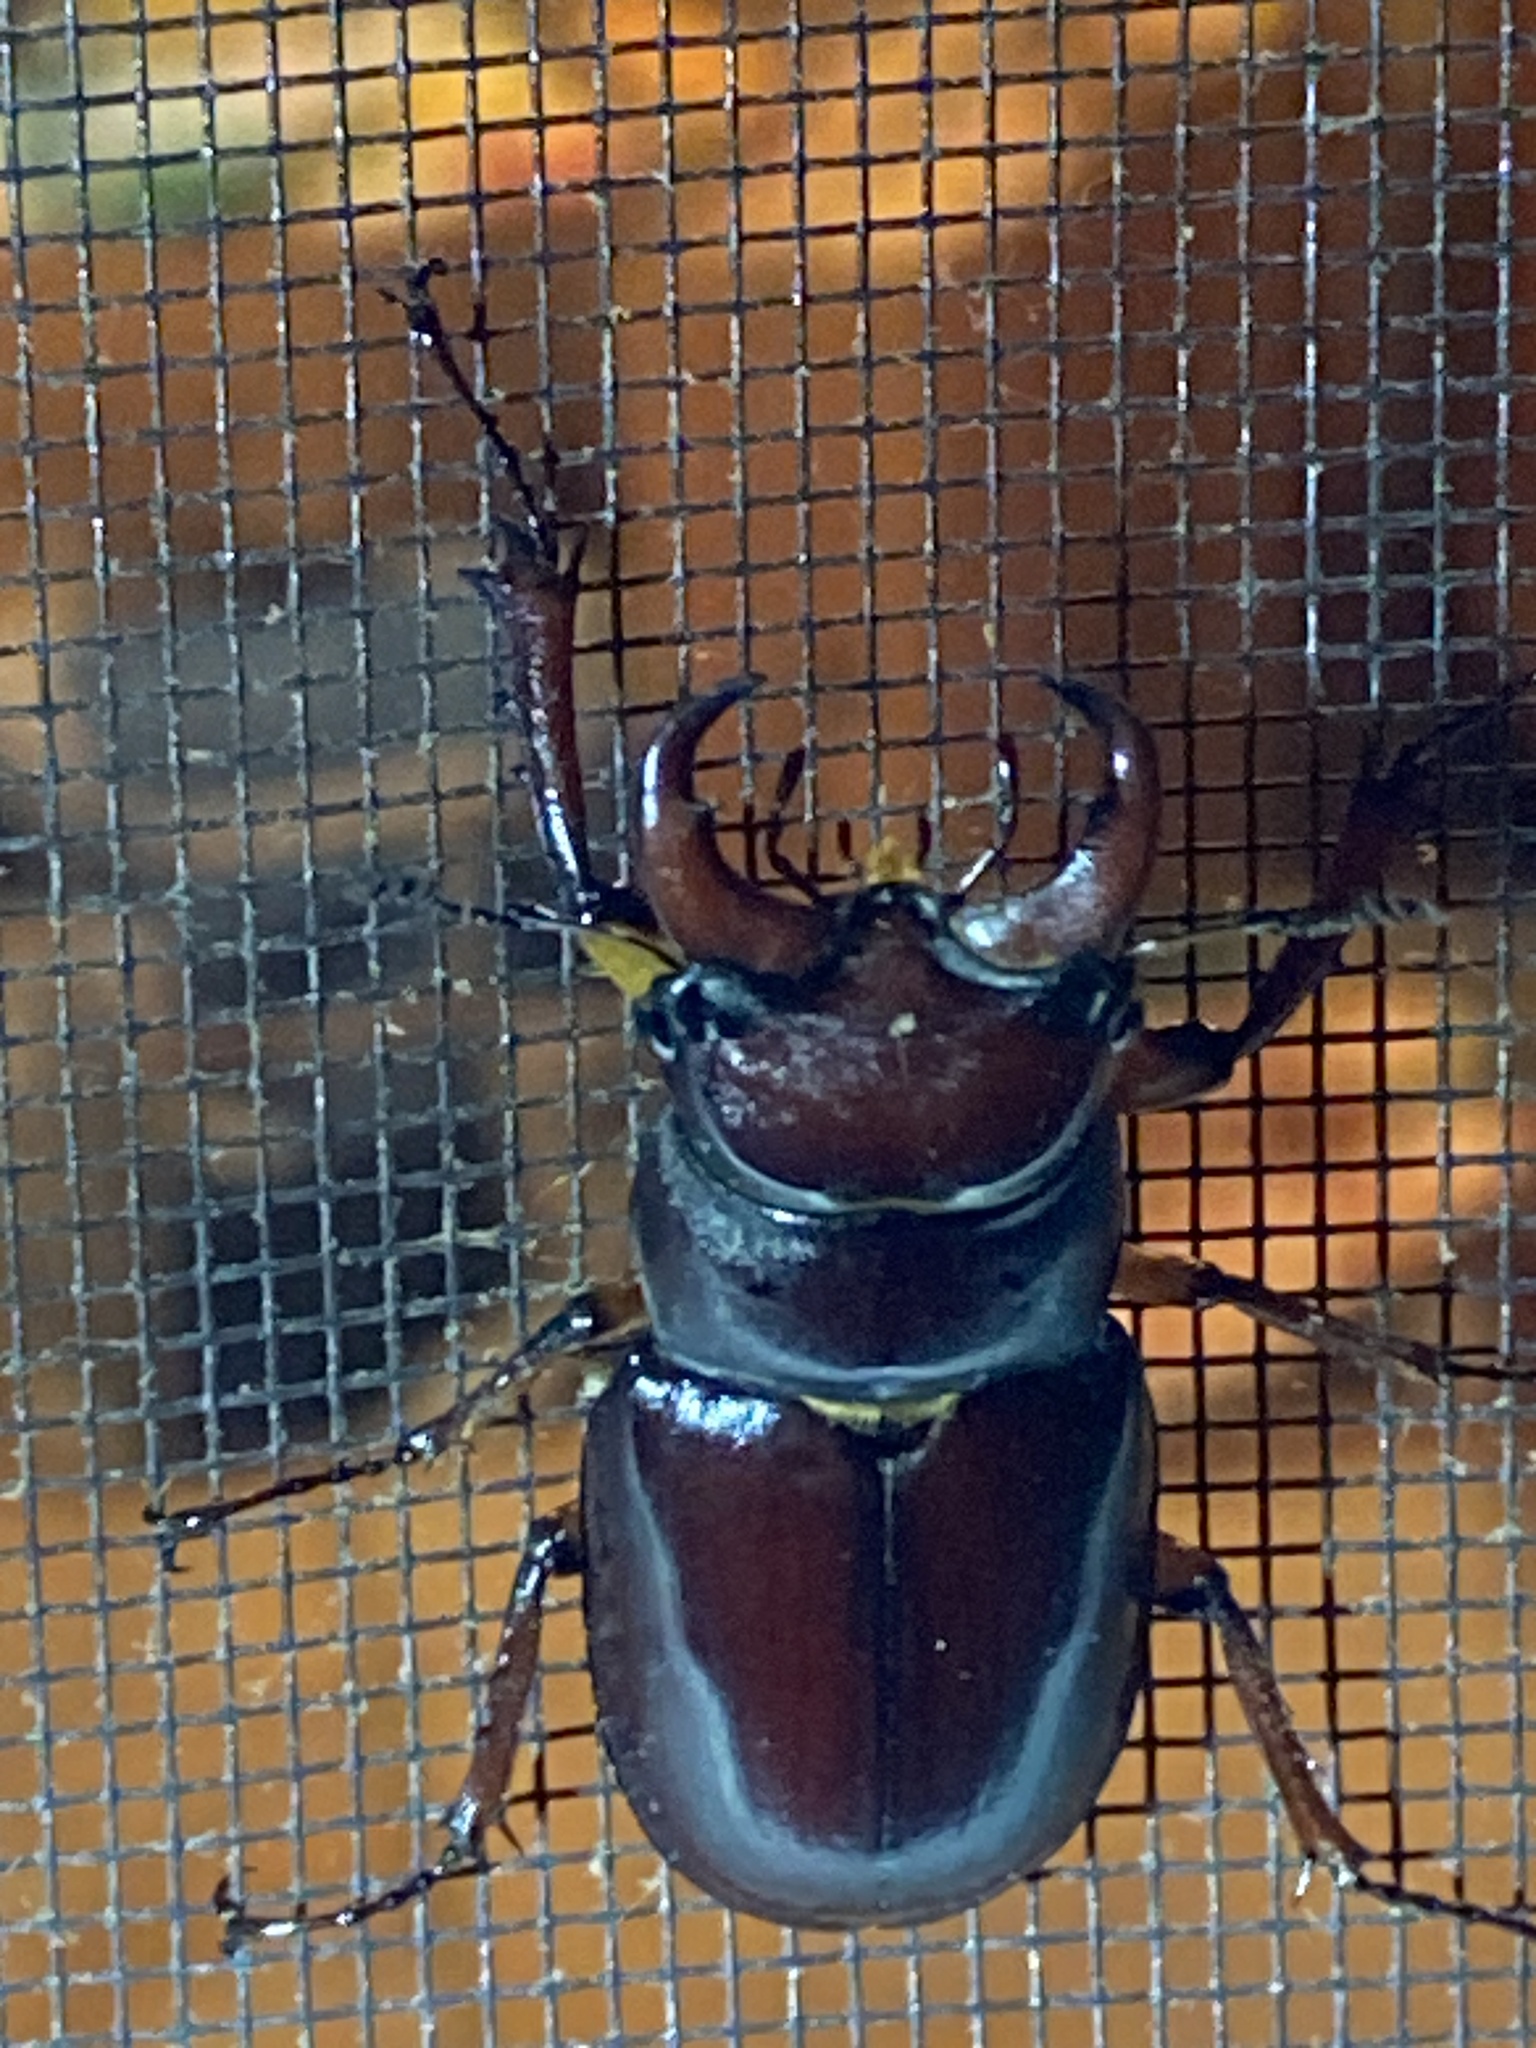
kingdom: Animalia
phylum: Arthropoda
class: Insecta
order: Coleoptera
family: Lucanidae
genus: Lucanus
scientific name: Lucanus capreolus
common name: Stag beetle
